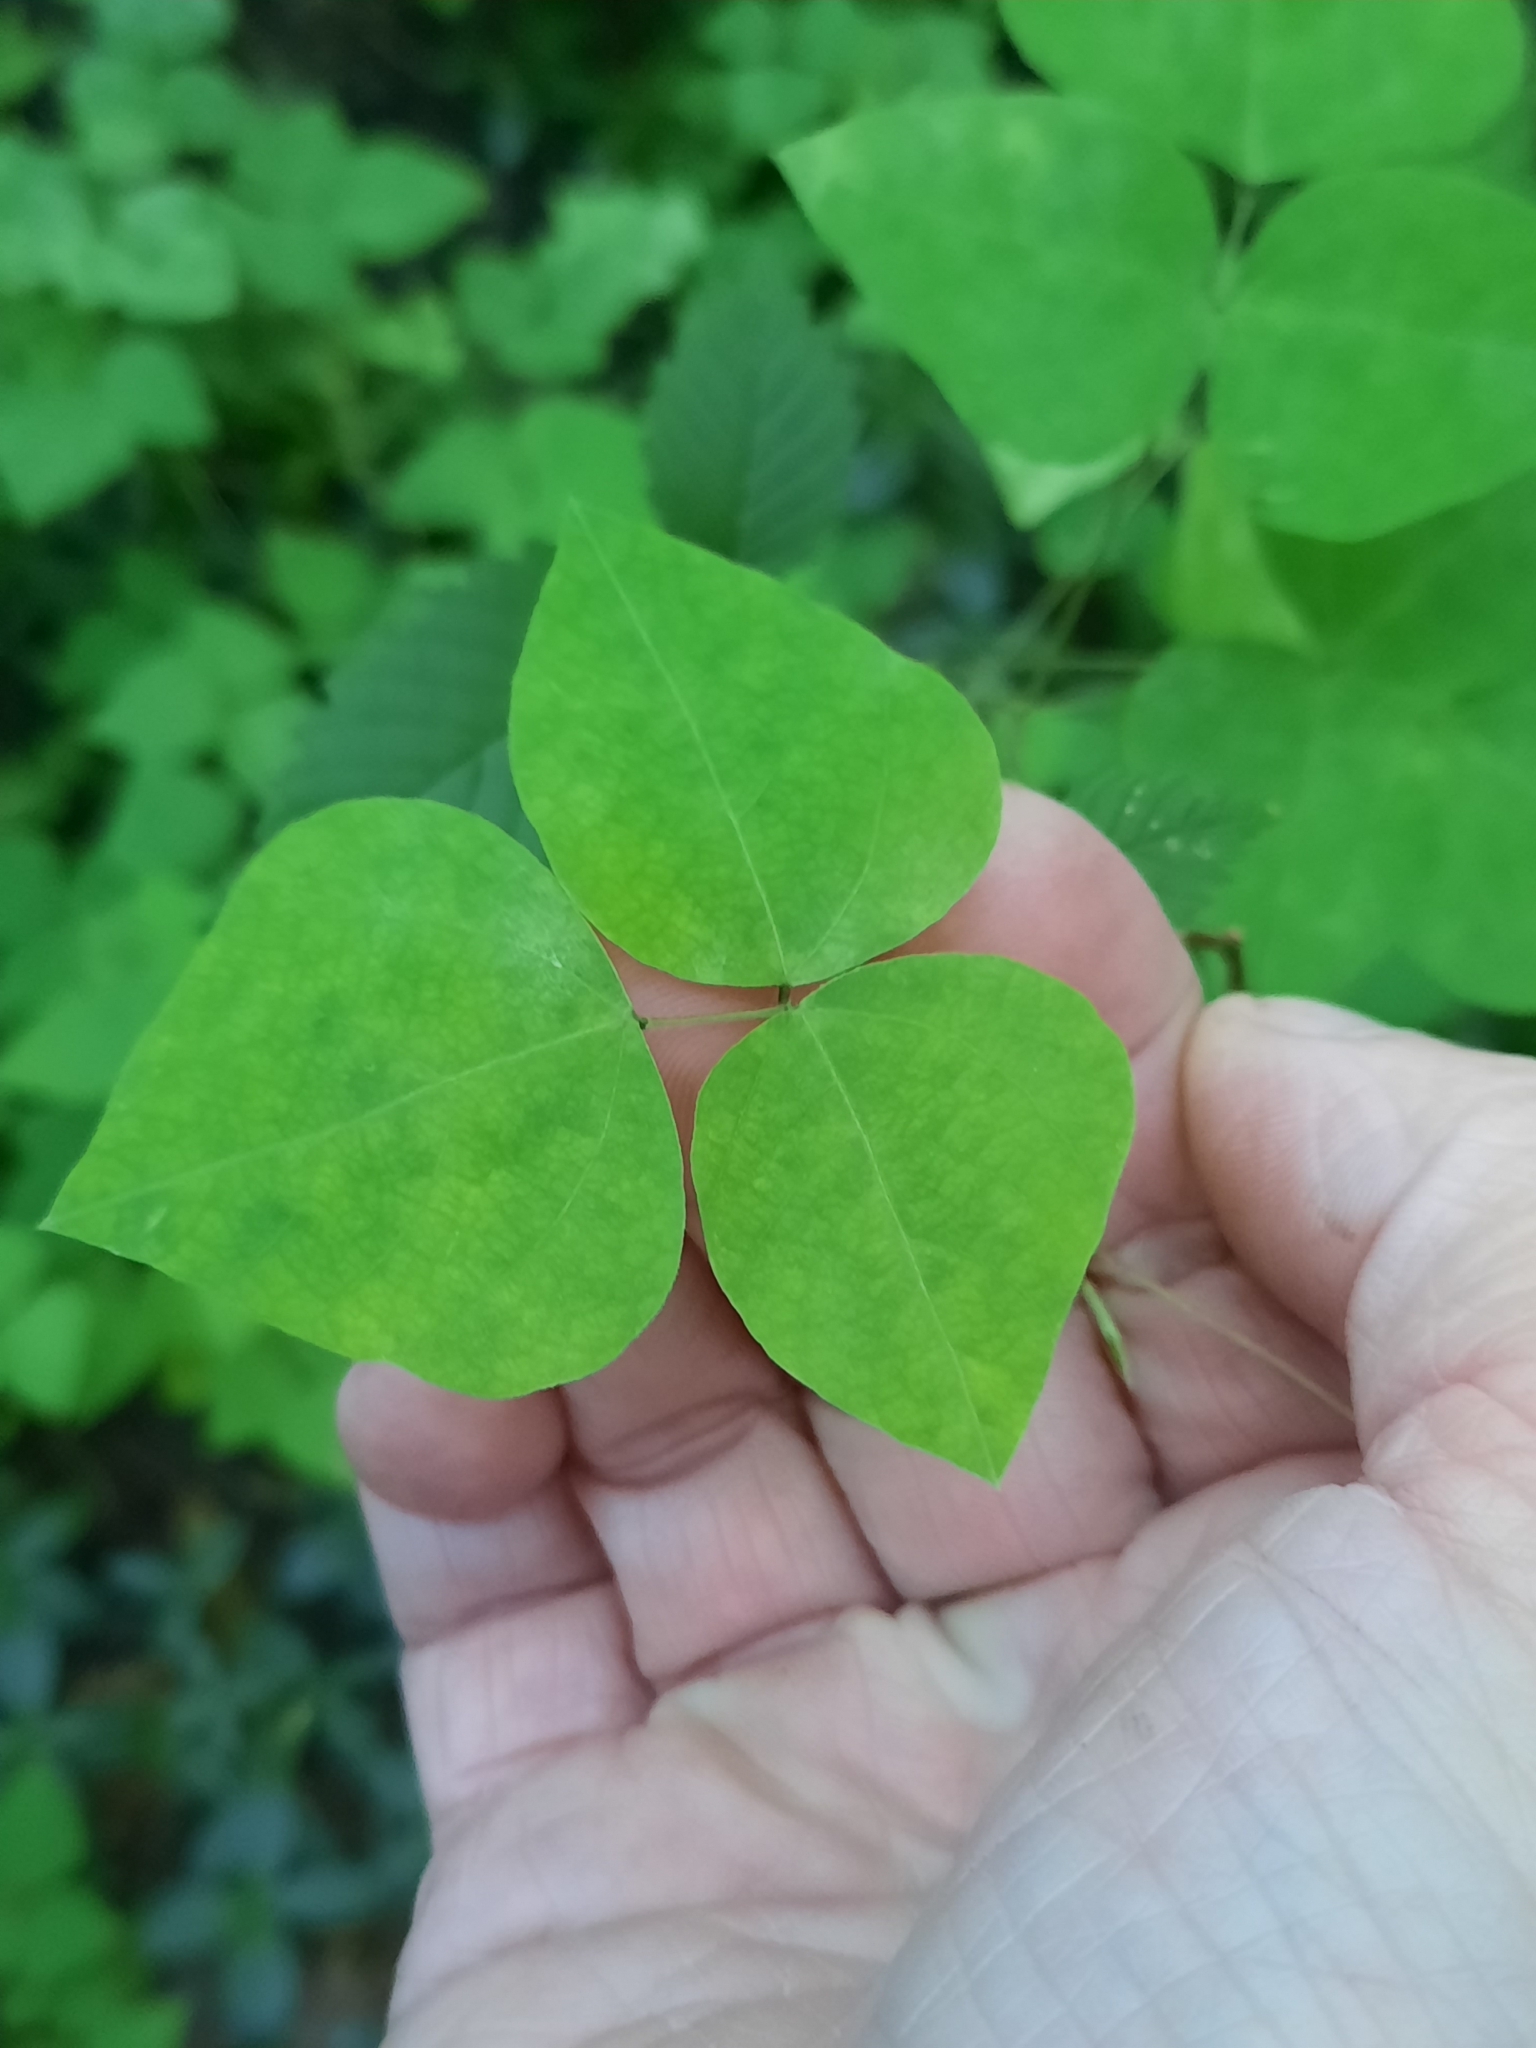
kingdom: Plantae
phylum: Tracheophyta
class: Magnoliopsida
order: Fabales
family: Fabaceae
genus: Amphicarpaea
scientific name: Amphicarpaea bracteata
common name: American hog peanut
